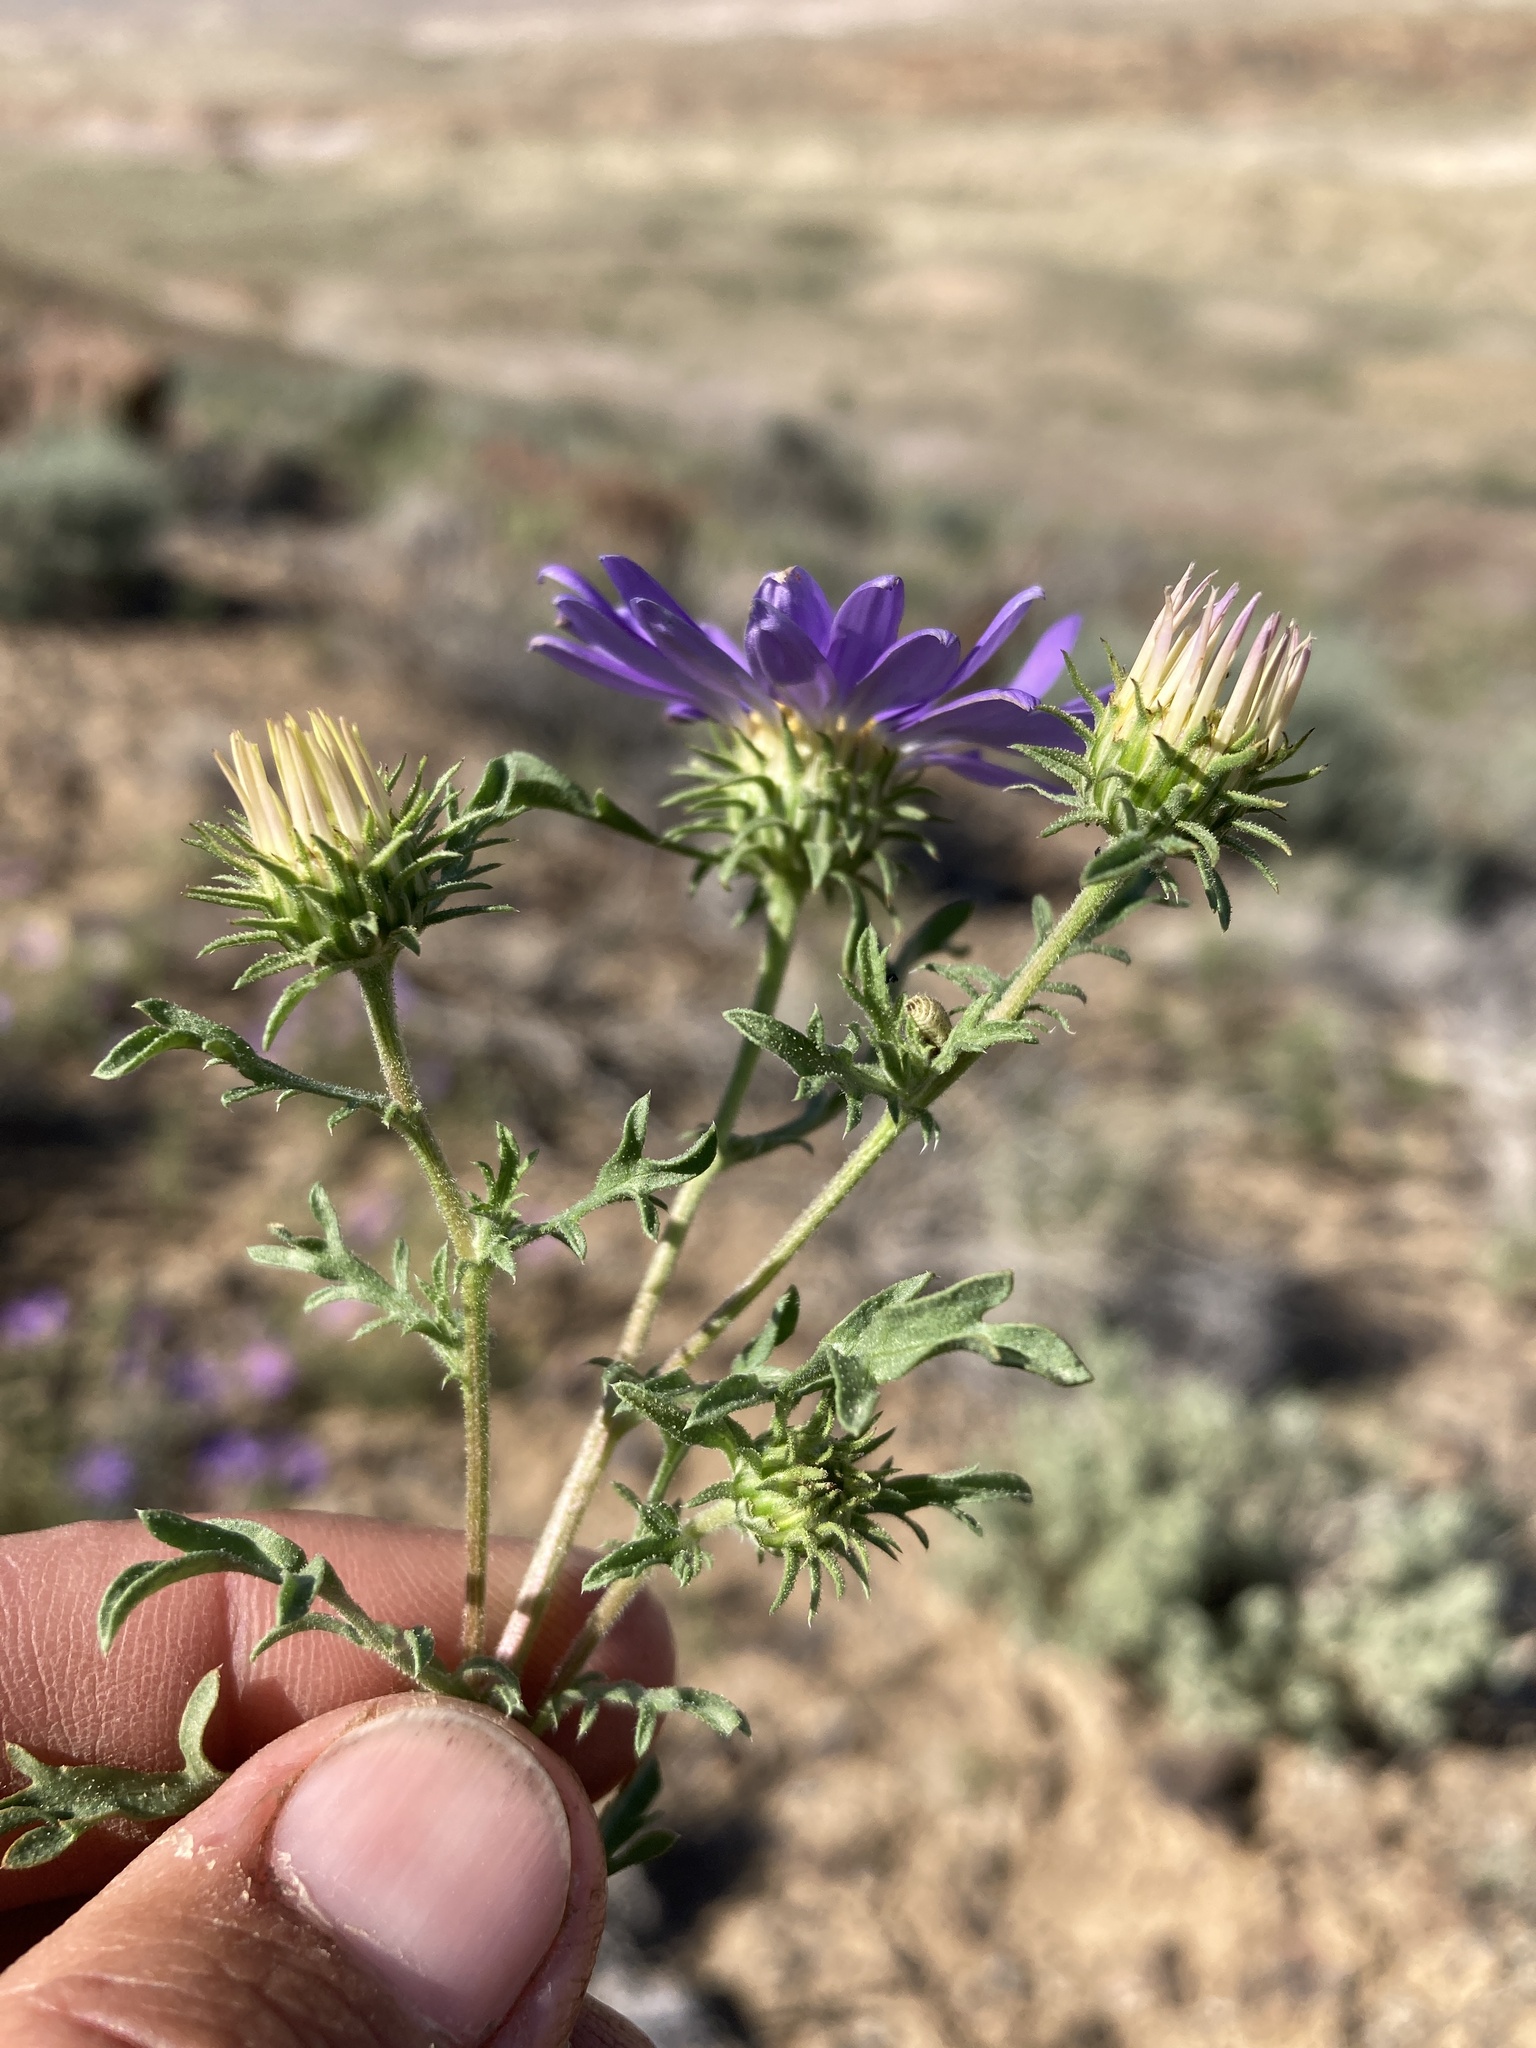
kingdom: Plantae
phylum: Tracheophyta
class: Magnoliopsida
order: Asterales
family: Asteraceae
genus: Machaeranthera
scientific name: Machaeranthera tanacetifolia
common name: Tansy-aster
